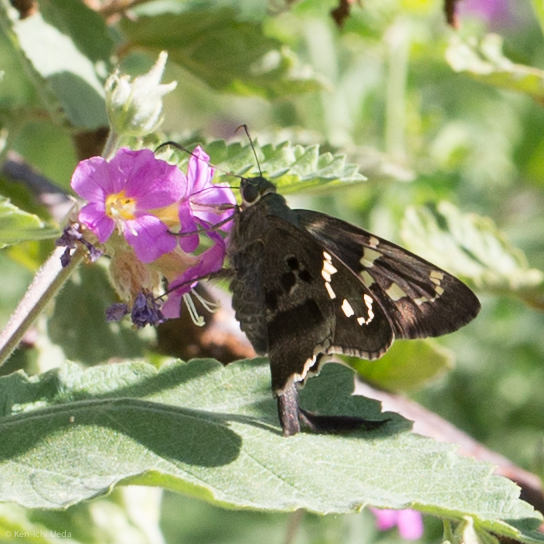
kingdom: Animalia
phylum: Arthropoda
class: Insecta
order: Lepidoptera
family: Hesperiidae
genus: Urbanus
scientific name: Urbanus proteus
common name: Long-tailed skipper
